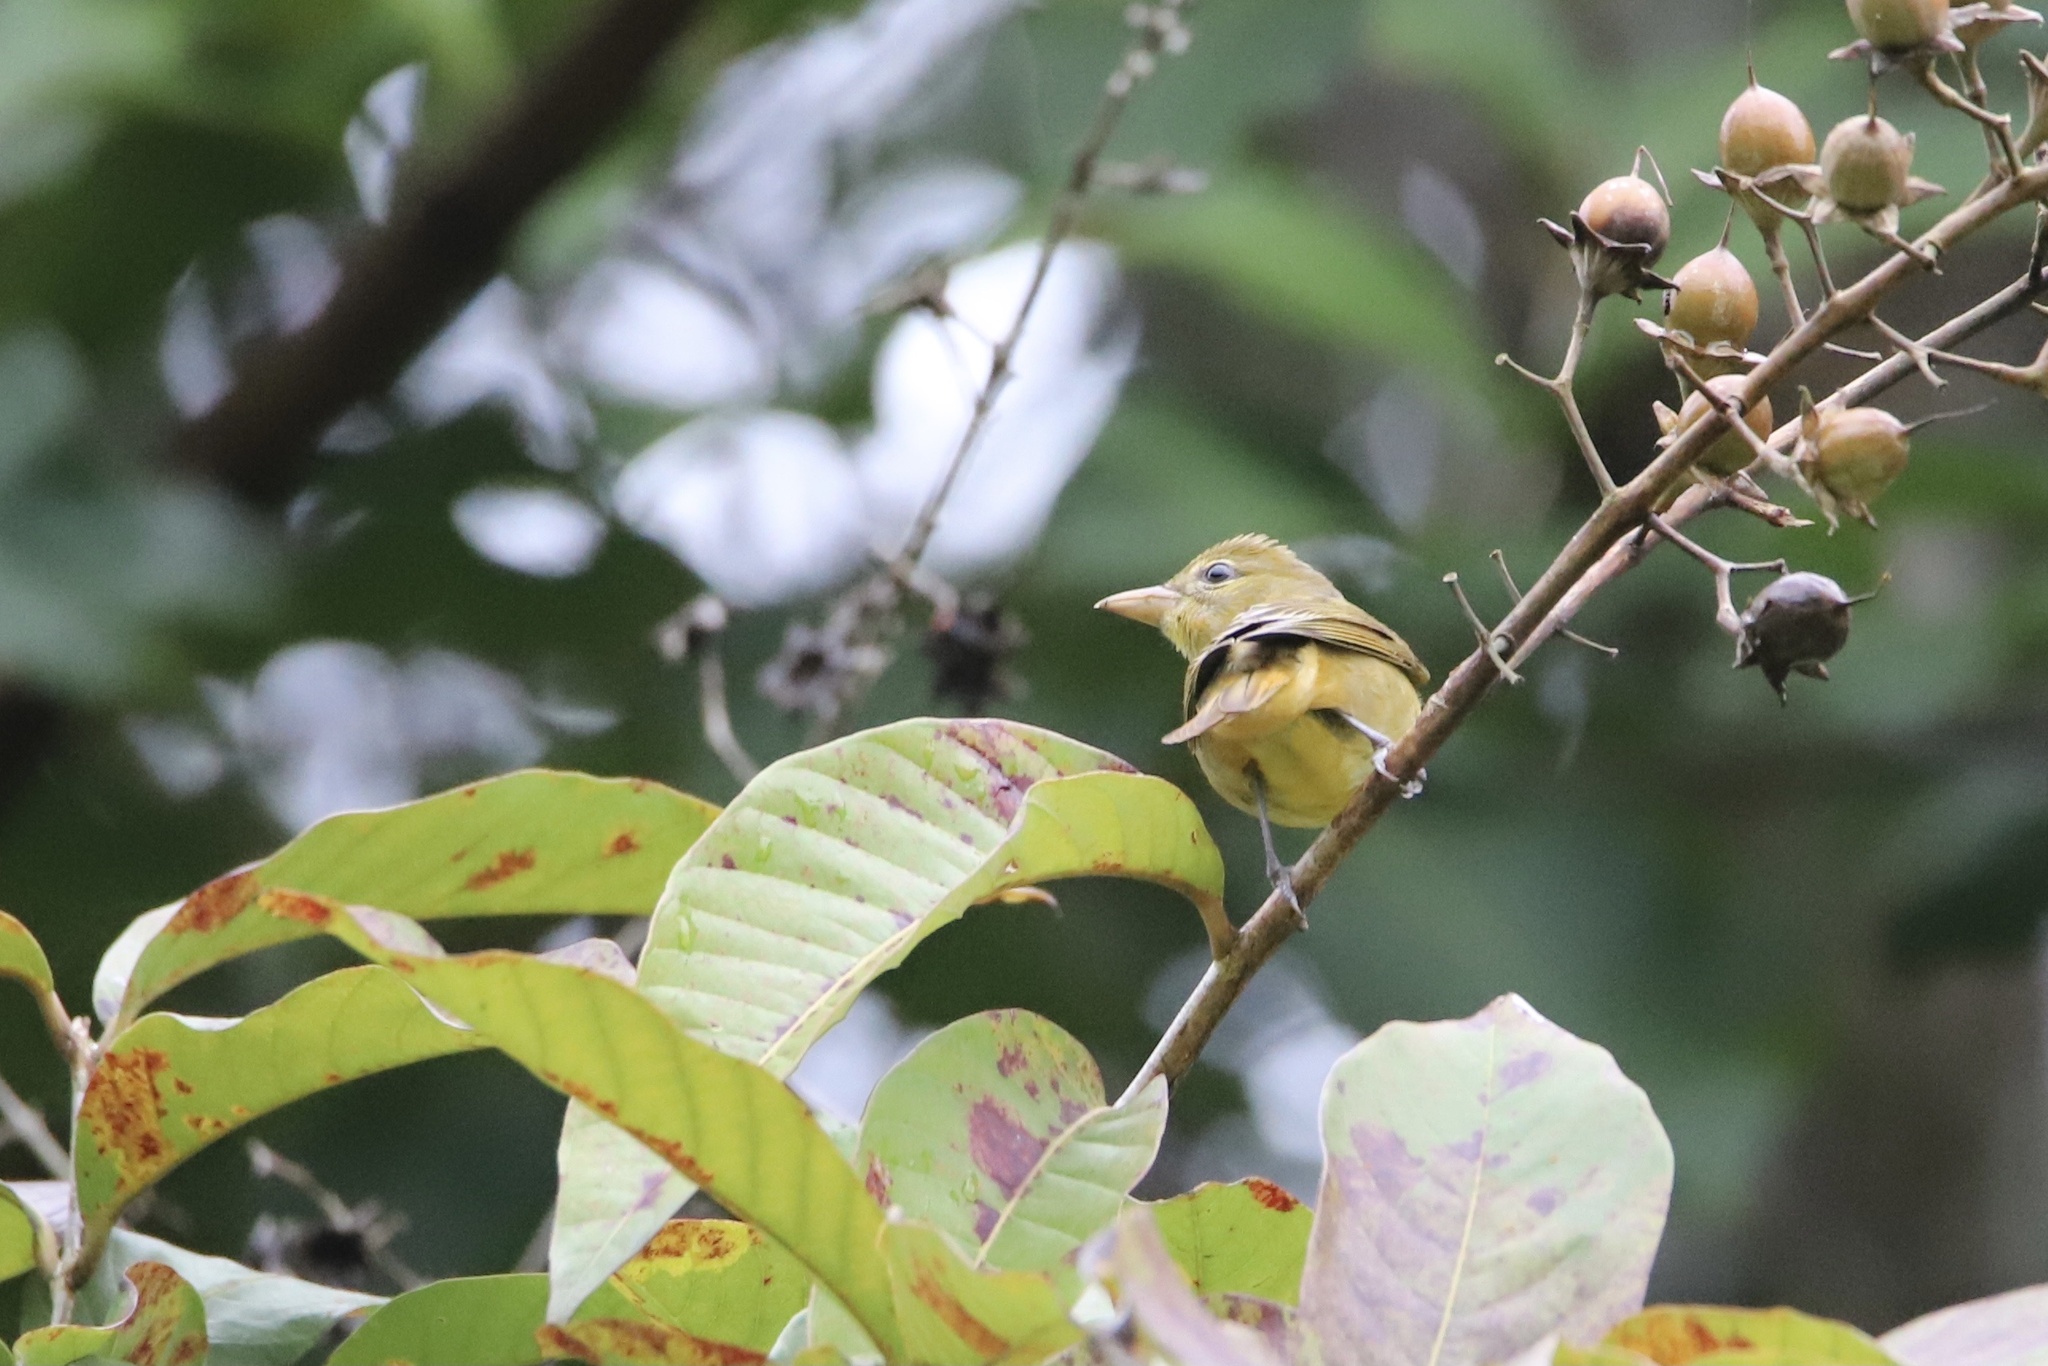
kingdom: Animalia
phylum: Chordata
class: Aves
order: Passeriformes
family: Cardinalidae
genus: Piranga
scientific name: Piranga rubra
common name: Summer tanager
